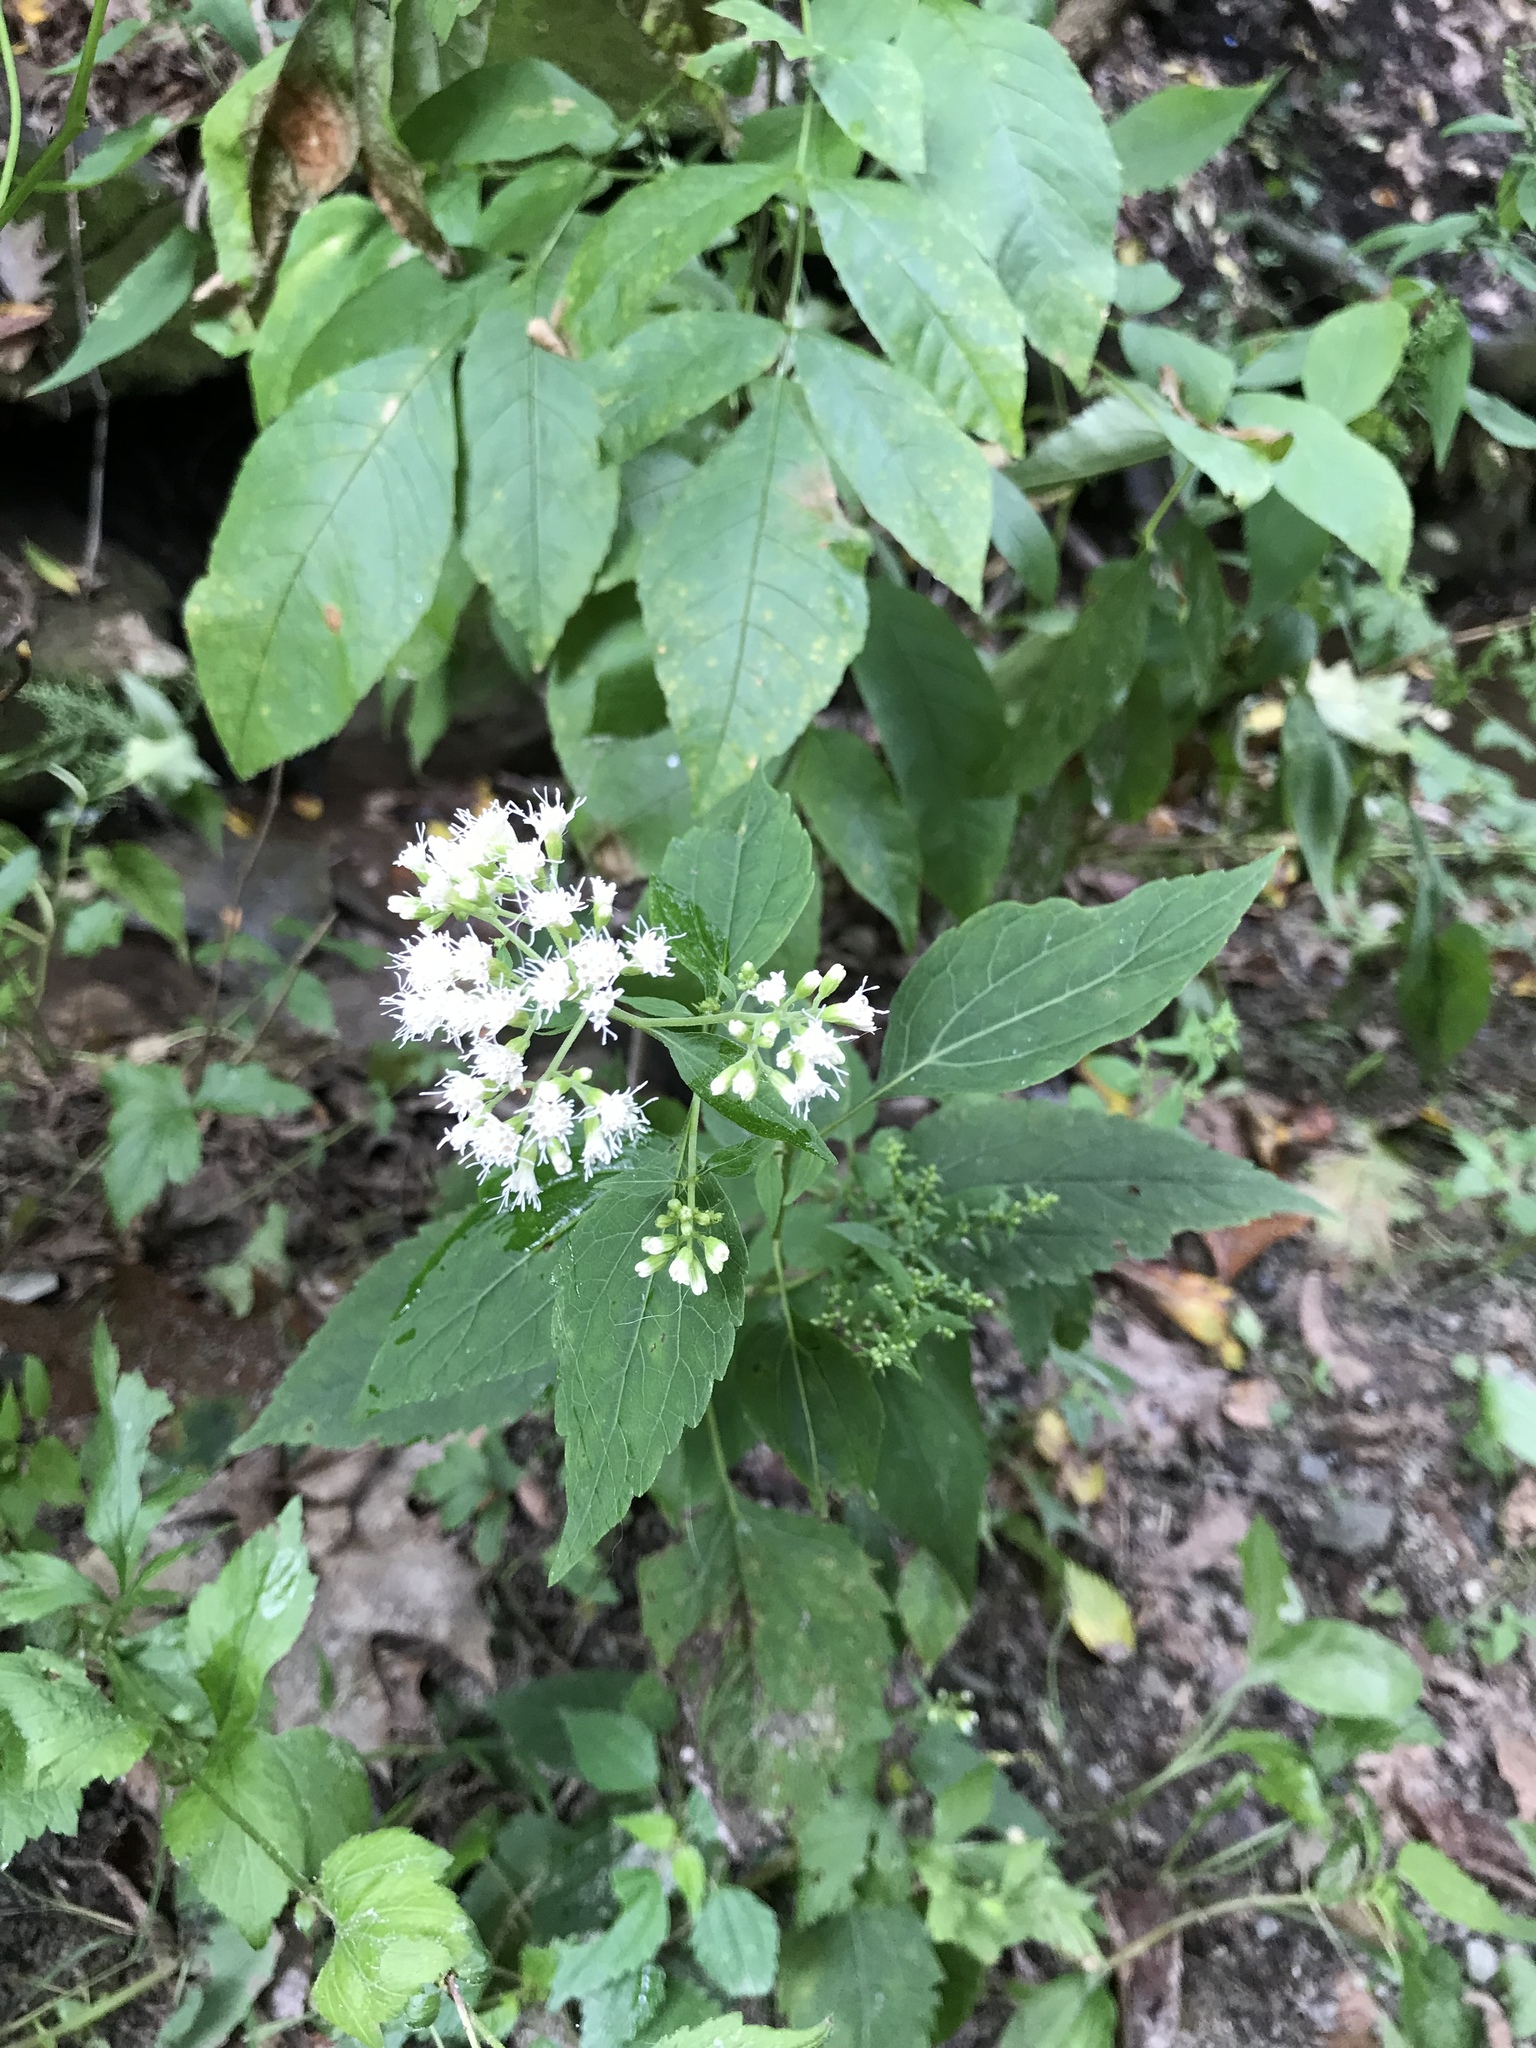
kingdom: Plantae
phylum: Tracheophyta
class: Magnoliopsida
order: Asterales
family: Asteraceae
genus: Ageratina
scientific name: Ageratina altissima
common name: White snakeroot
